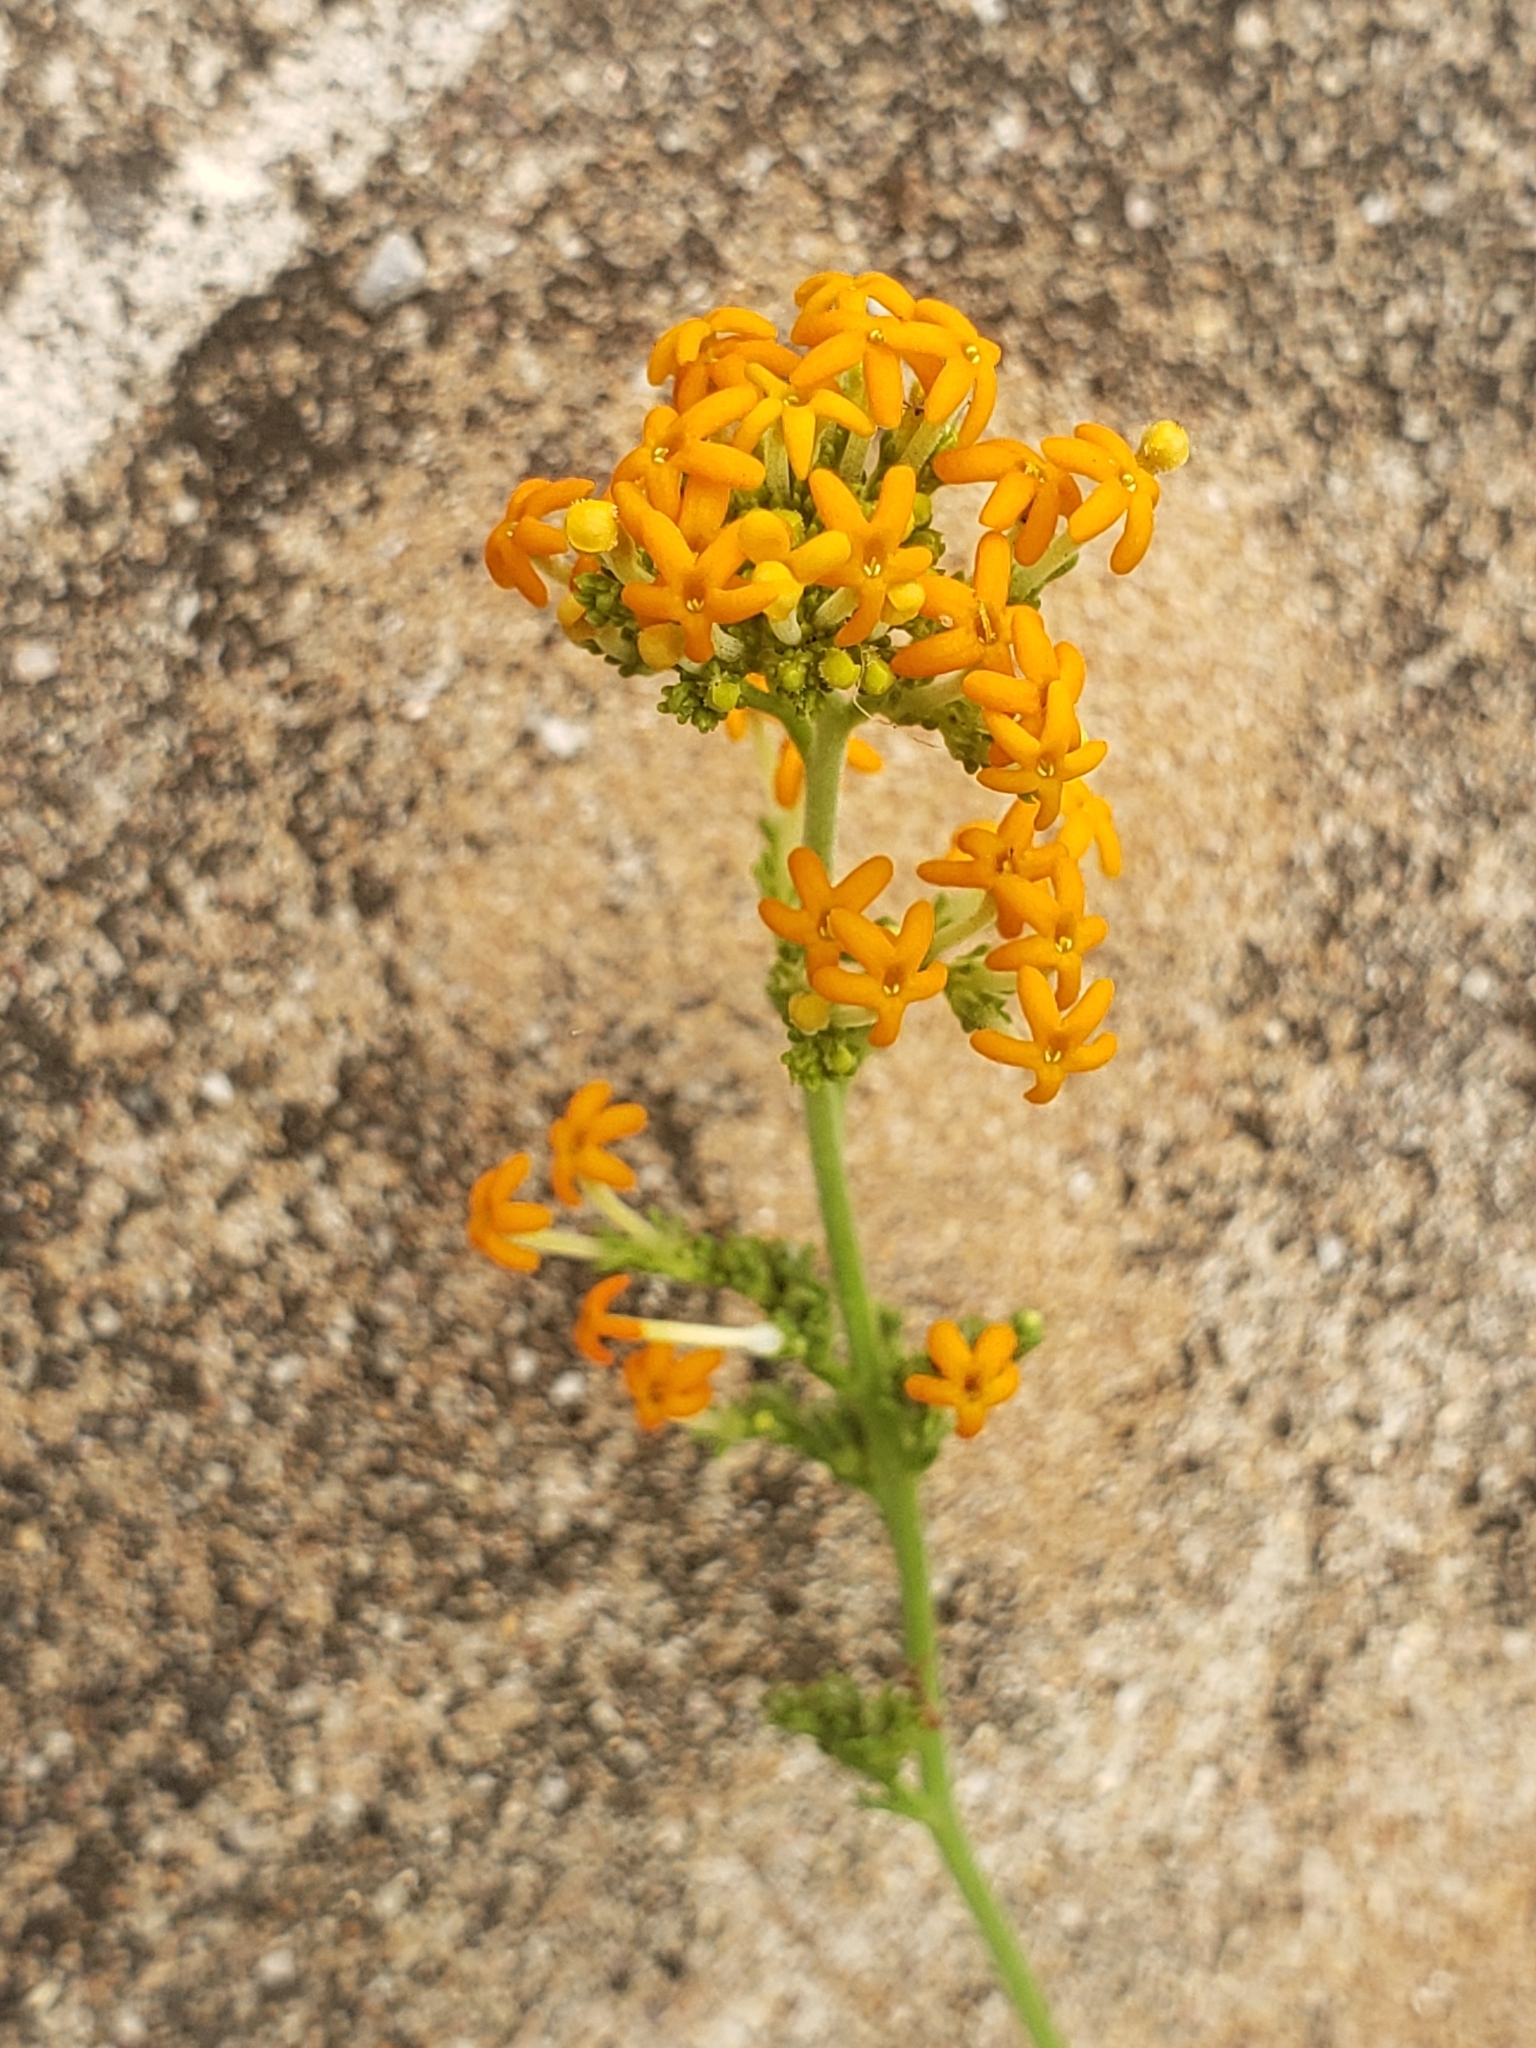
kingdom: Plantae
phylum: Tracheophyta
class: Magnoliopsida
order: Lamiales
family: Scrophulariaceae
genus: Manulea
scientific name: Manulea tomentosa
